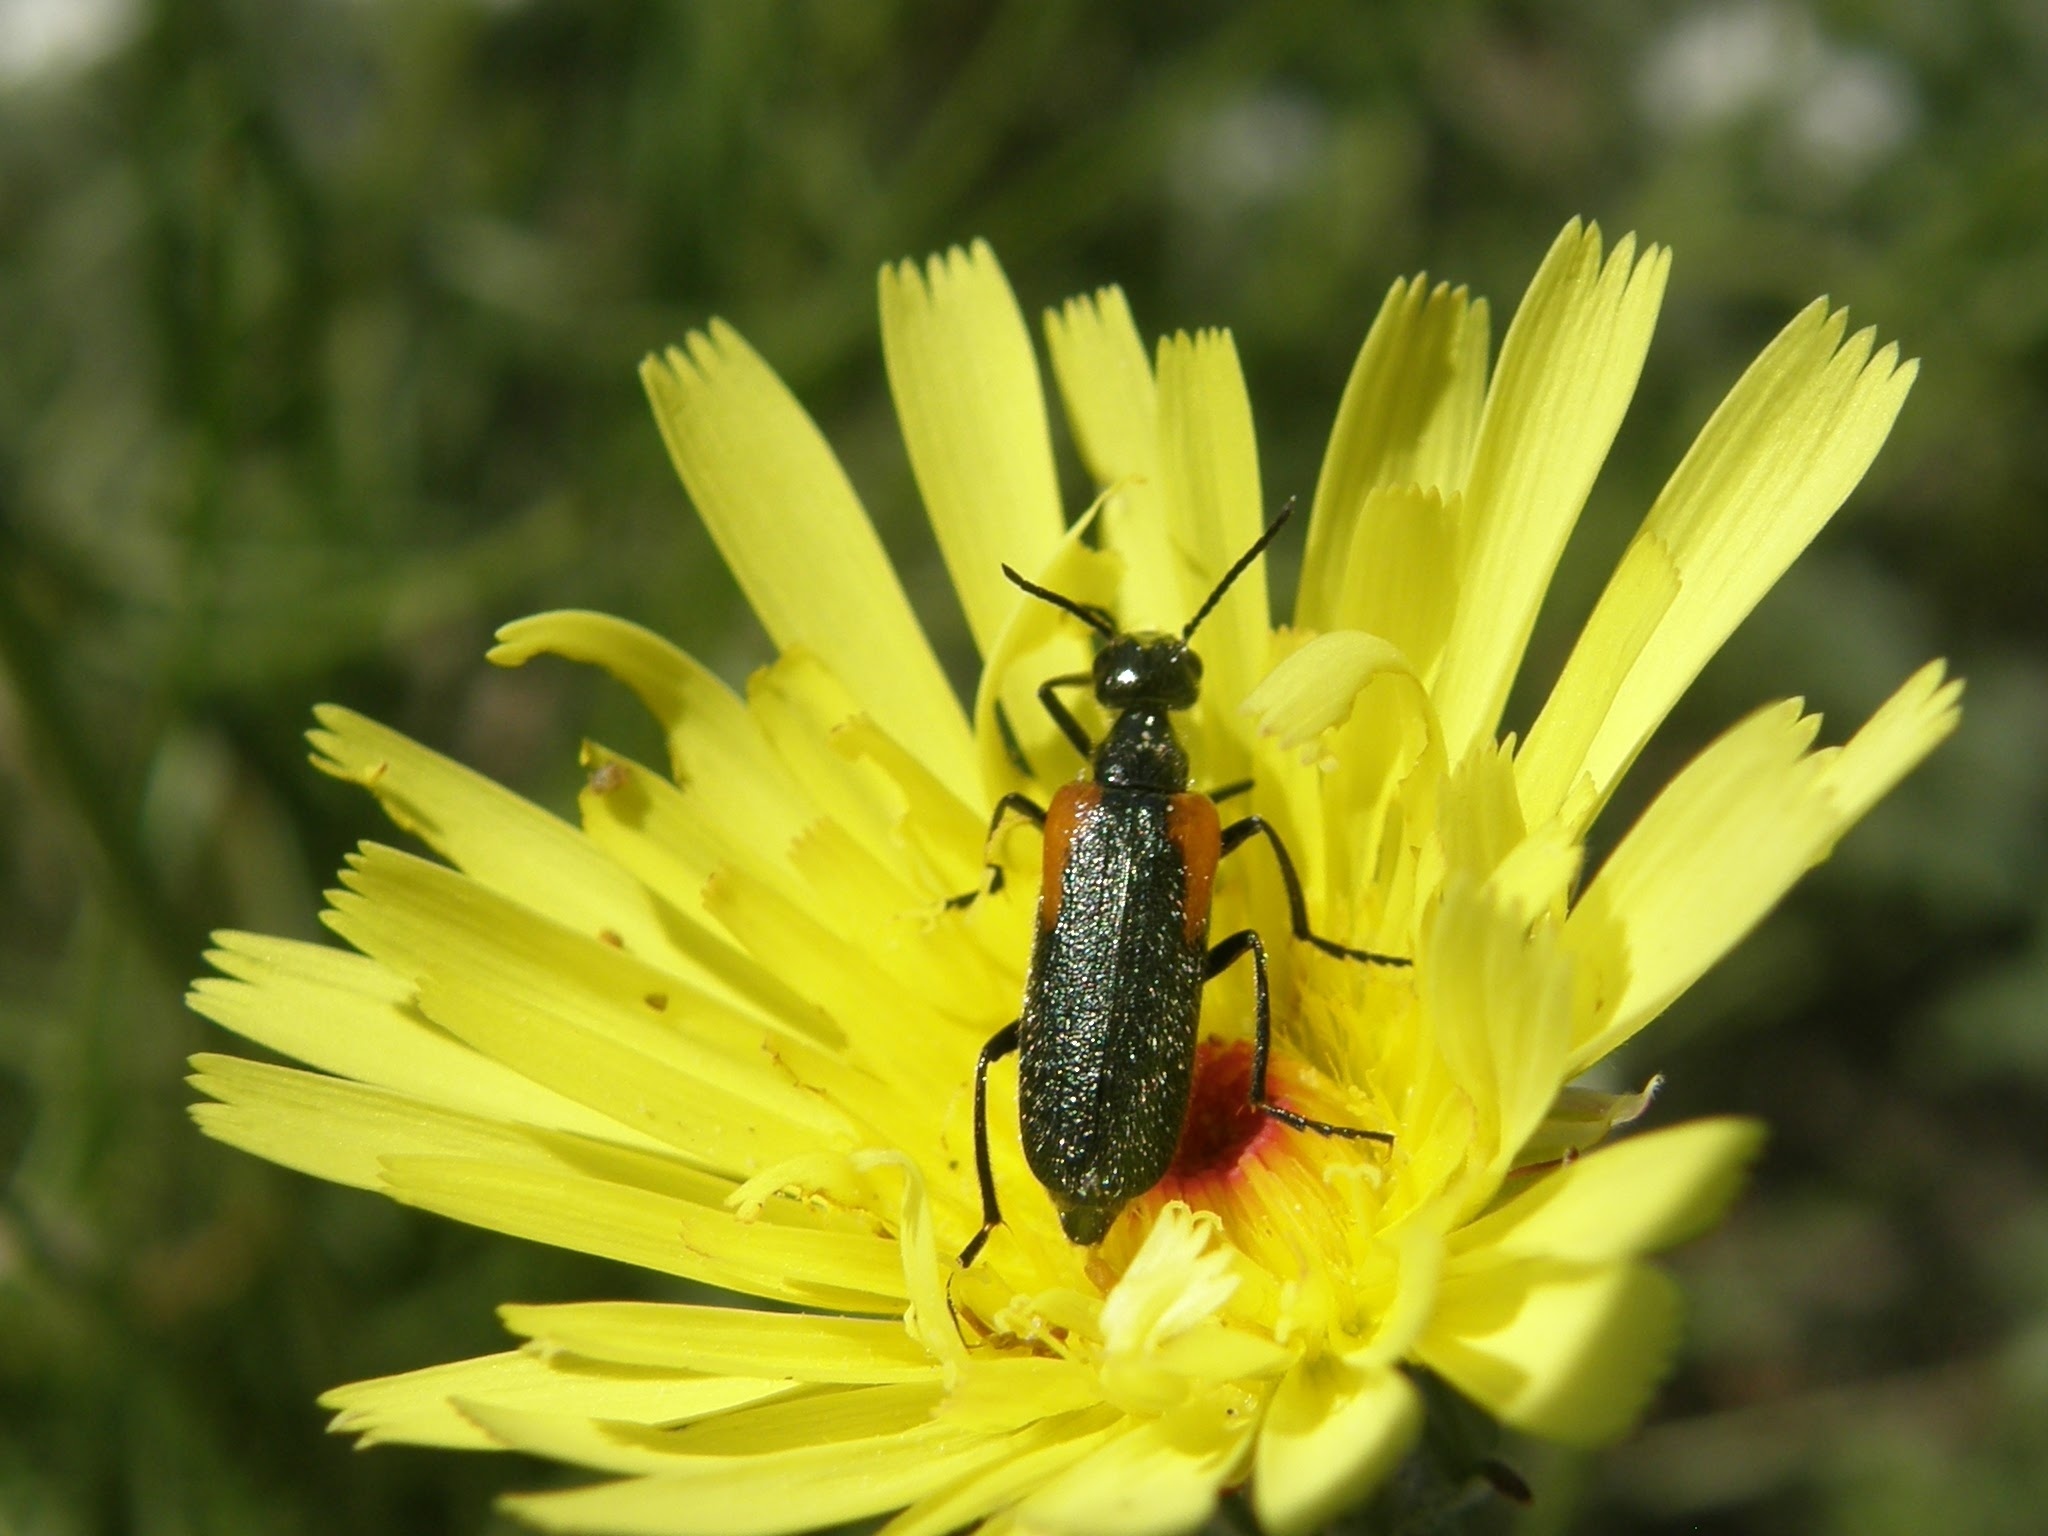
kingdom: Animalia
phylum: Arthropoda
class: Insecta
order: Coleoptera
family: Meloidae
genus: Eupompha
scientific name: Eupompha elegans
